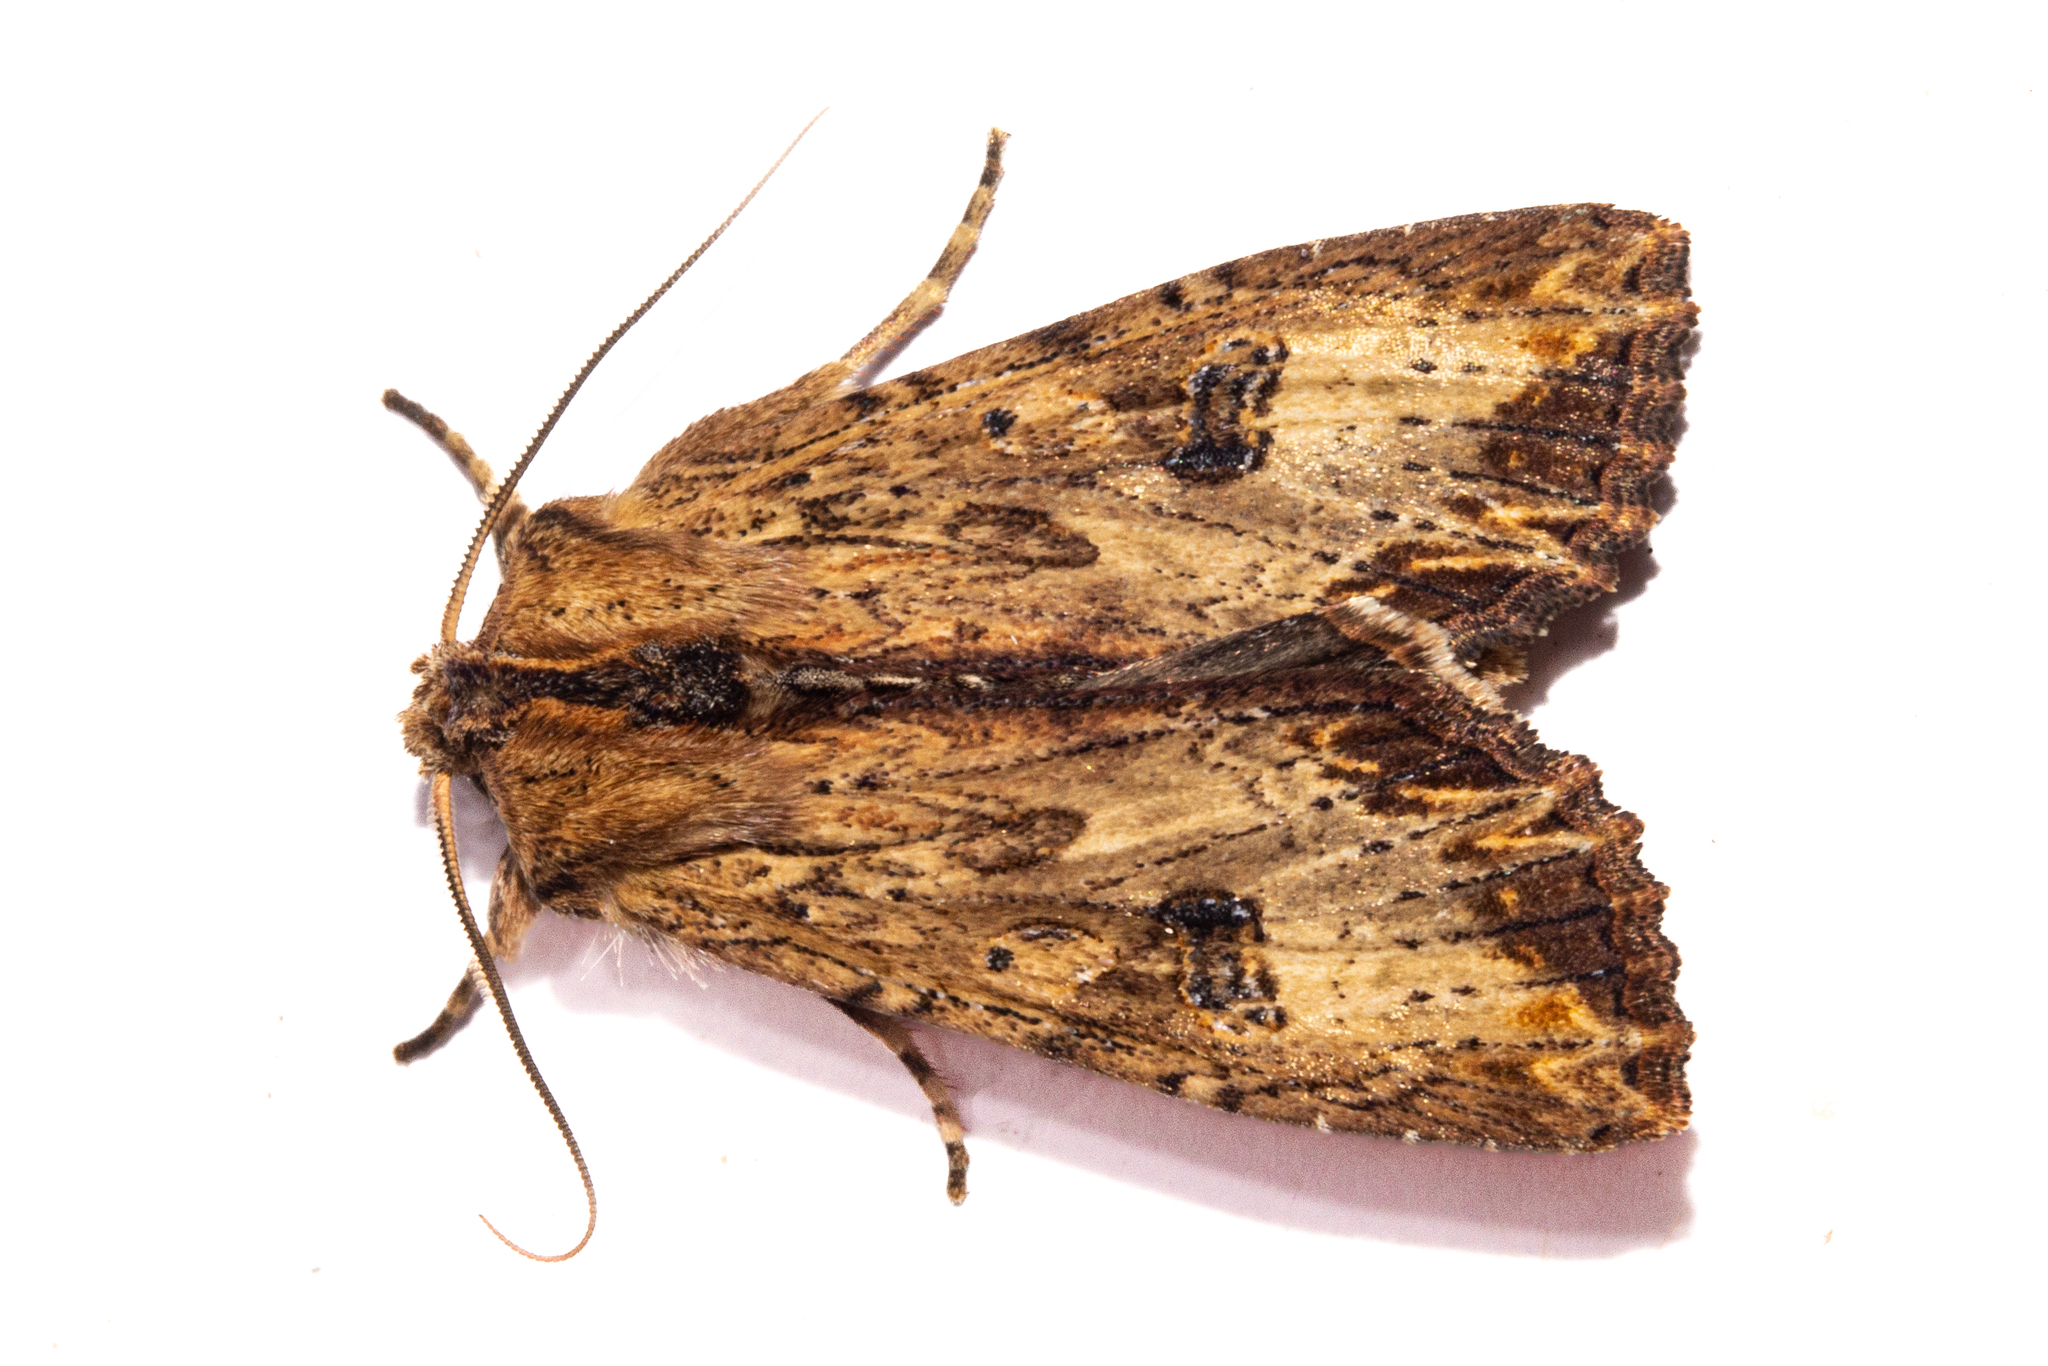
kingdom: Animalia
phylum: Arthropoda
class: Insecta
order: Lepidoptera
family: Noctuidae
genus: Ichneutica
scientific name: Ichneutica
